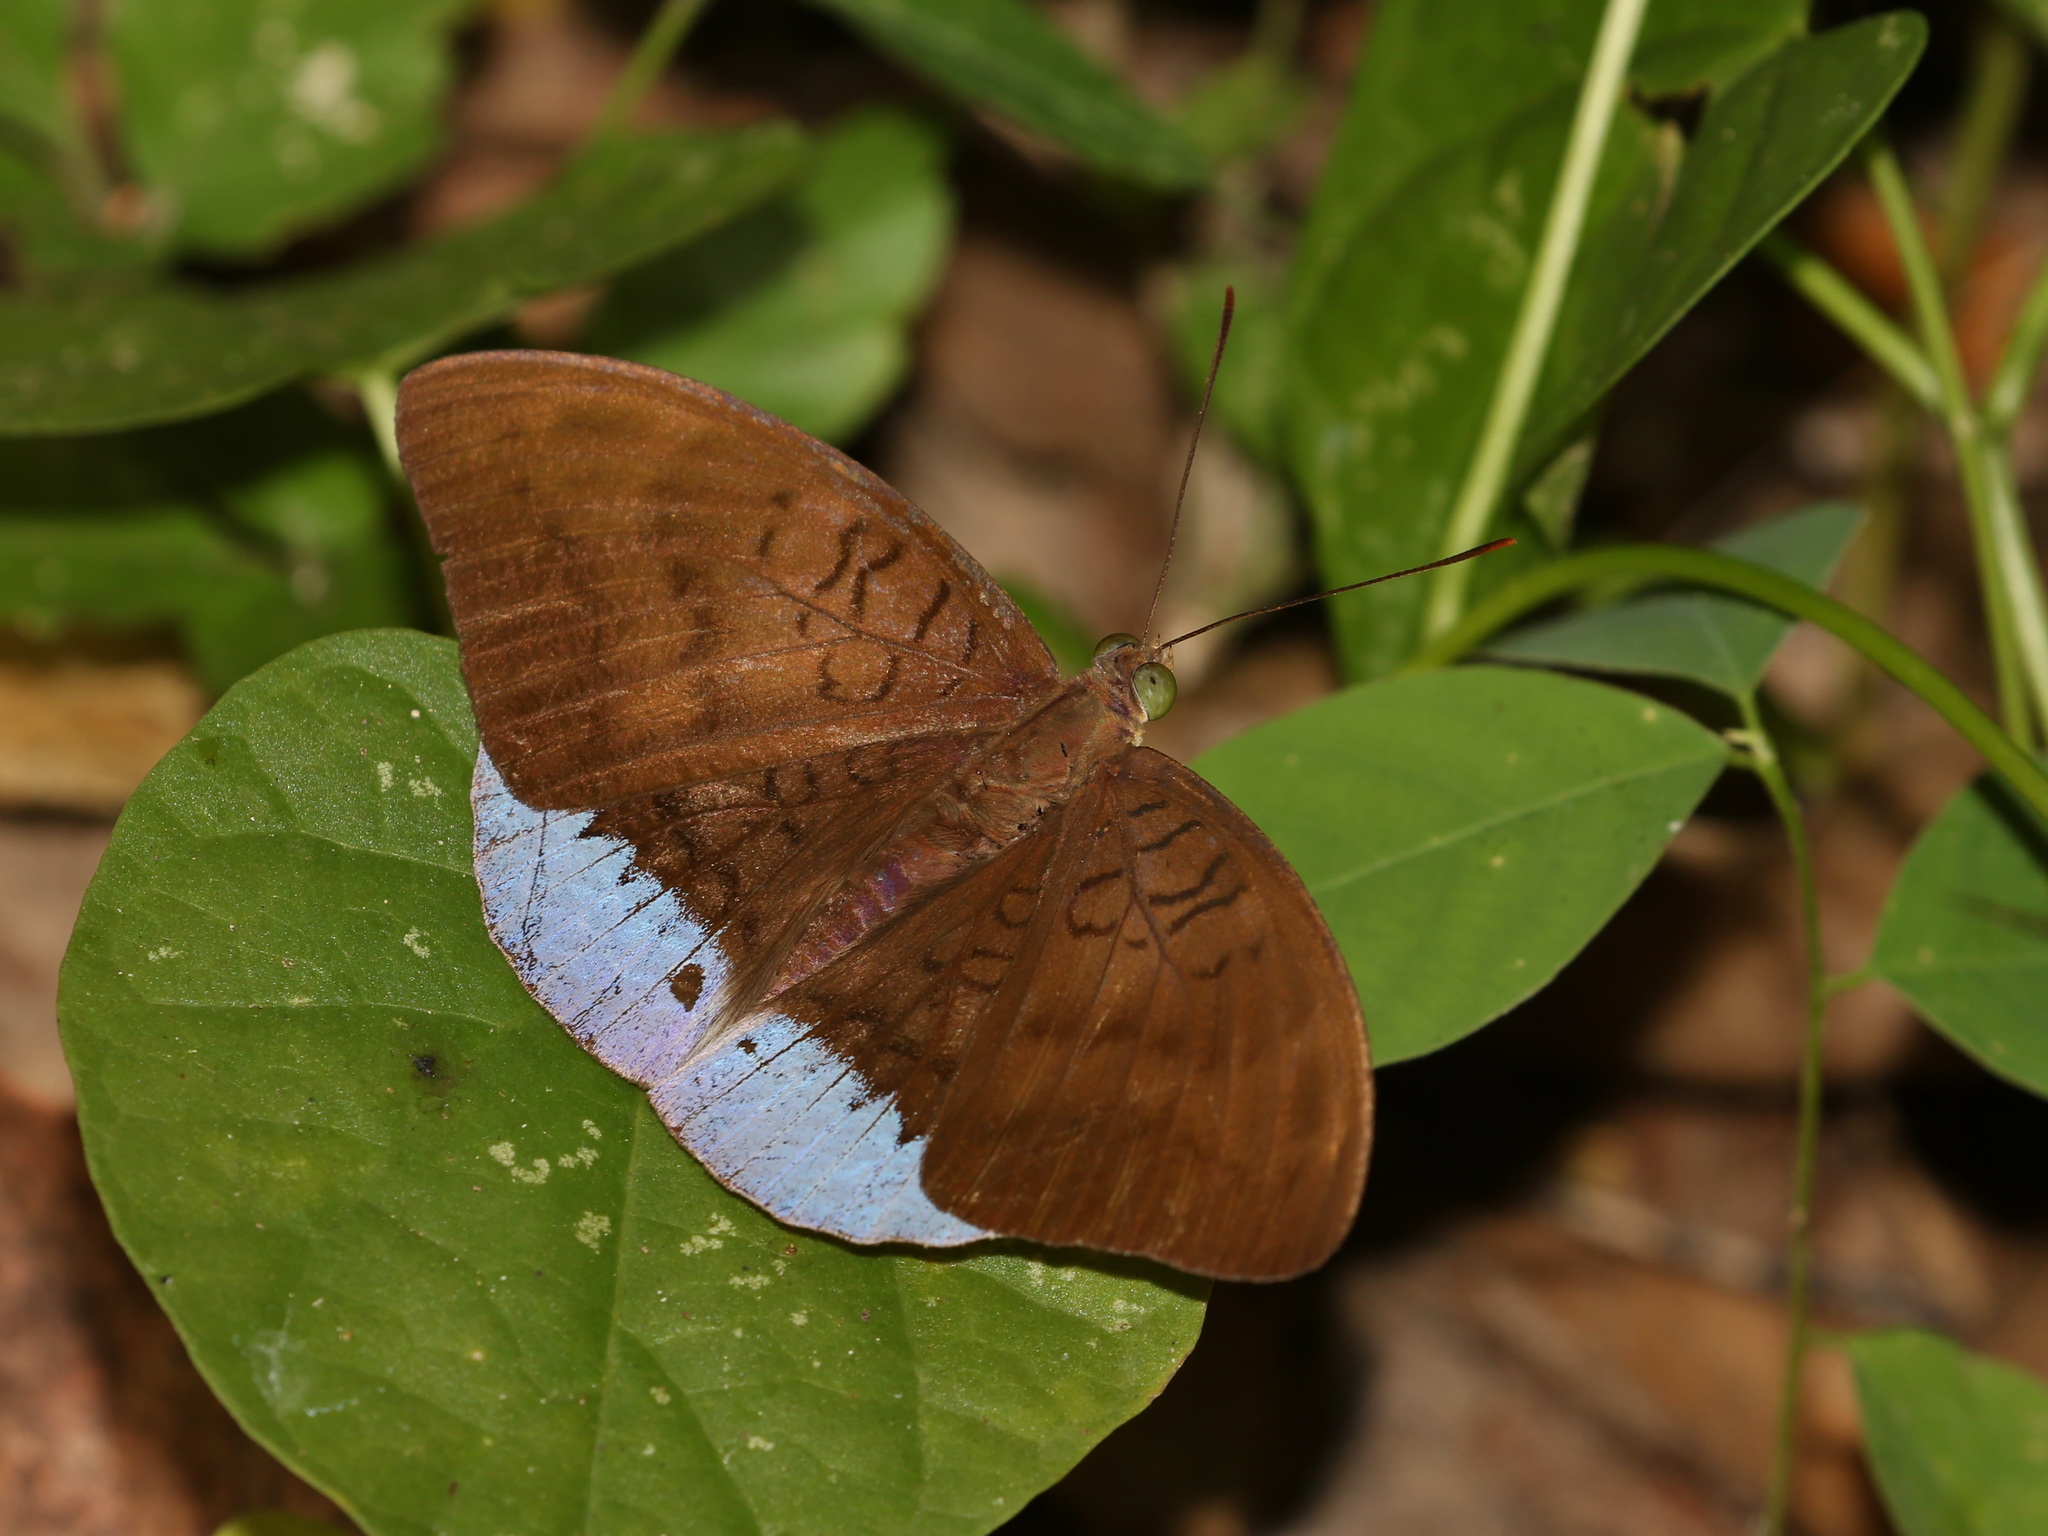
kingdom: Animalia
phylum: Arthropoda
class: Insecta
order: Lepidoptera
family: Nymphalidae
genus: Tanaecia
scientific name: Tanaecia julii
